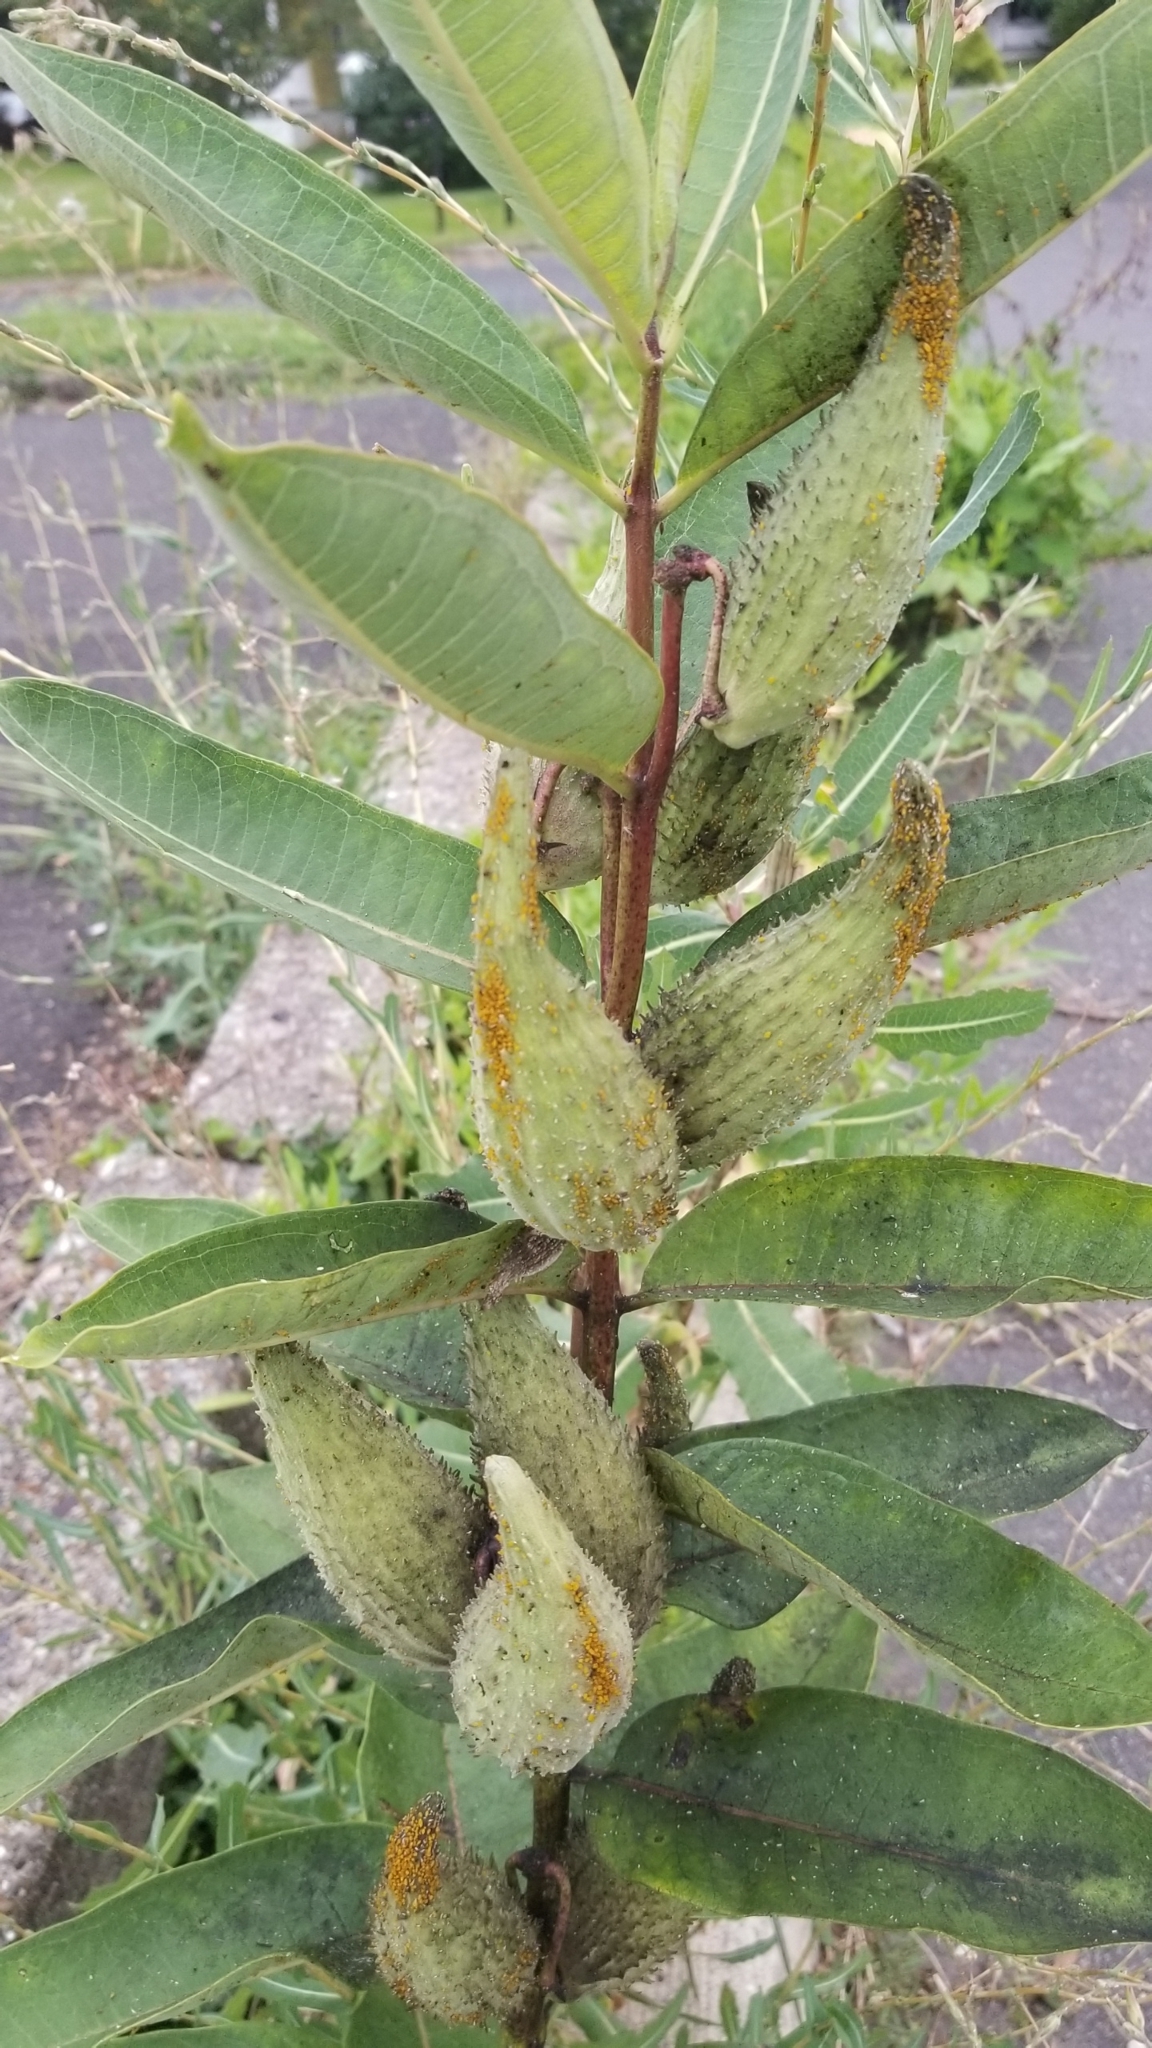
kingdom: Plantae
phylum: Tracheophyta
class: Magnoliopsida
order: Gentianales
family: Apocynaceae
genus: Asclepias
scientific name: Asclepias syriaca
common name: Common milkweed
